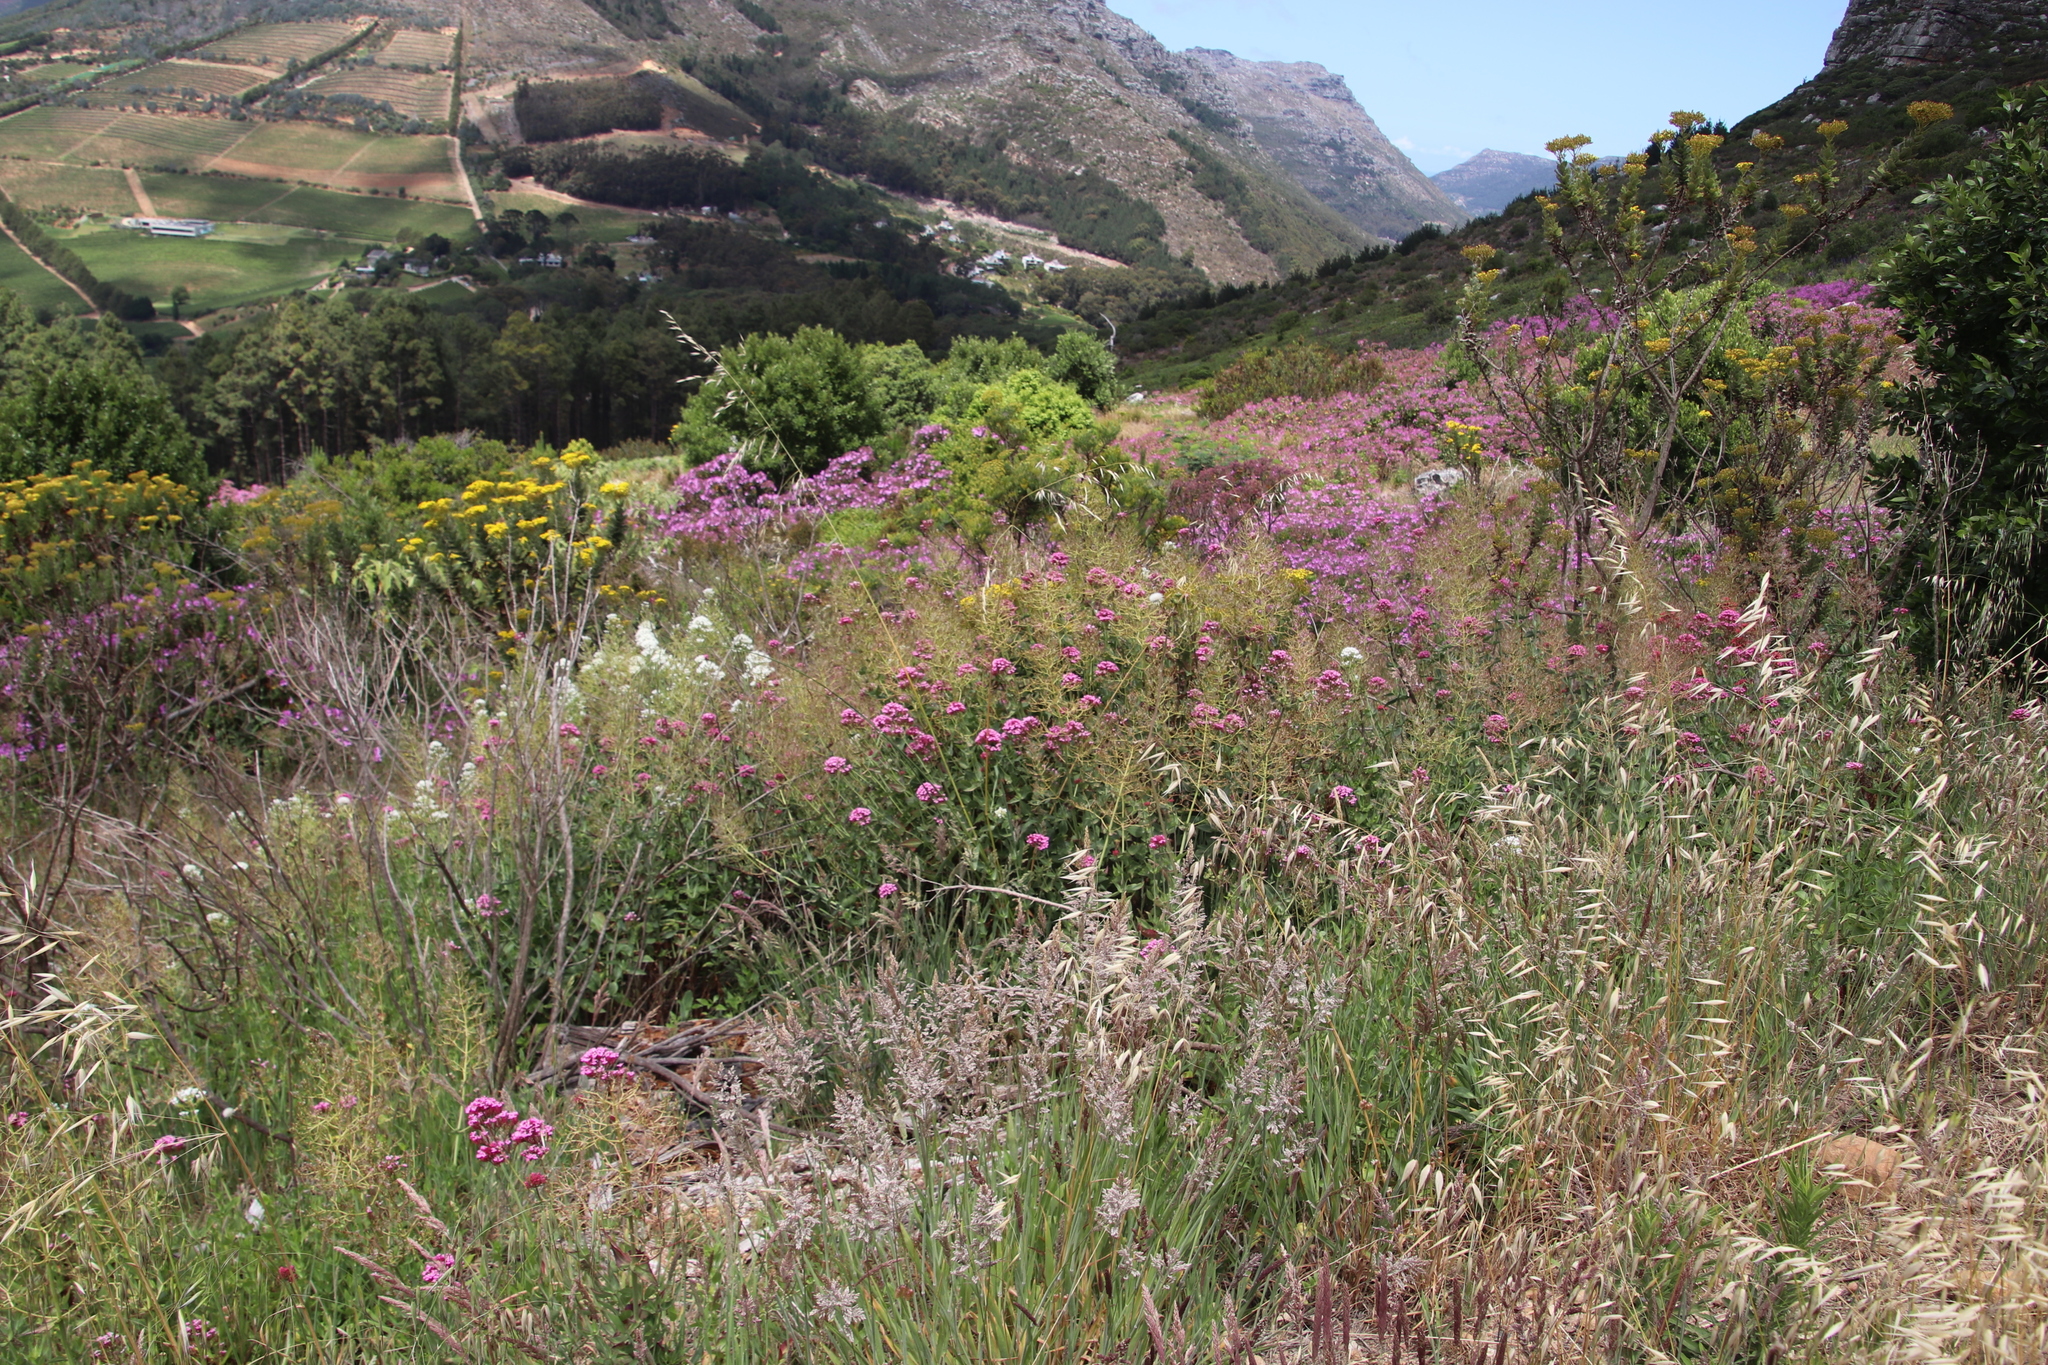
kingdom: Plantae
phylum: Tracheophyta
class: Magnoliopsida
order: Dipsacales
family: Caprifoliaceae
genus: Centranthus
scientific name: Centranthus ruber
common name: Red valerian
